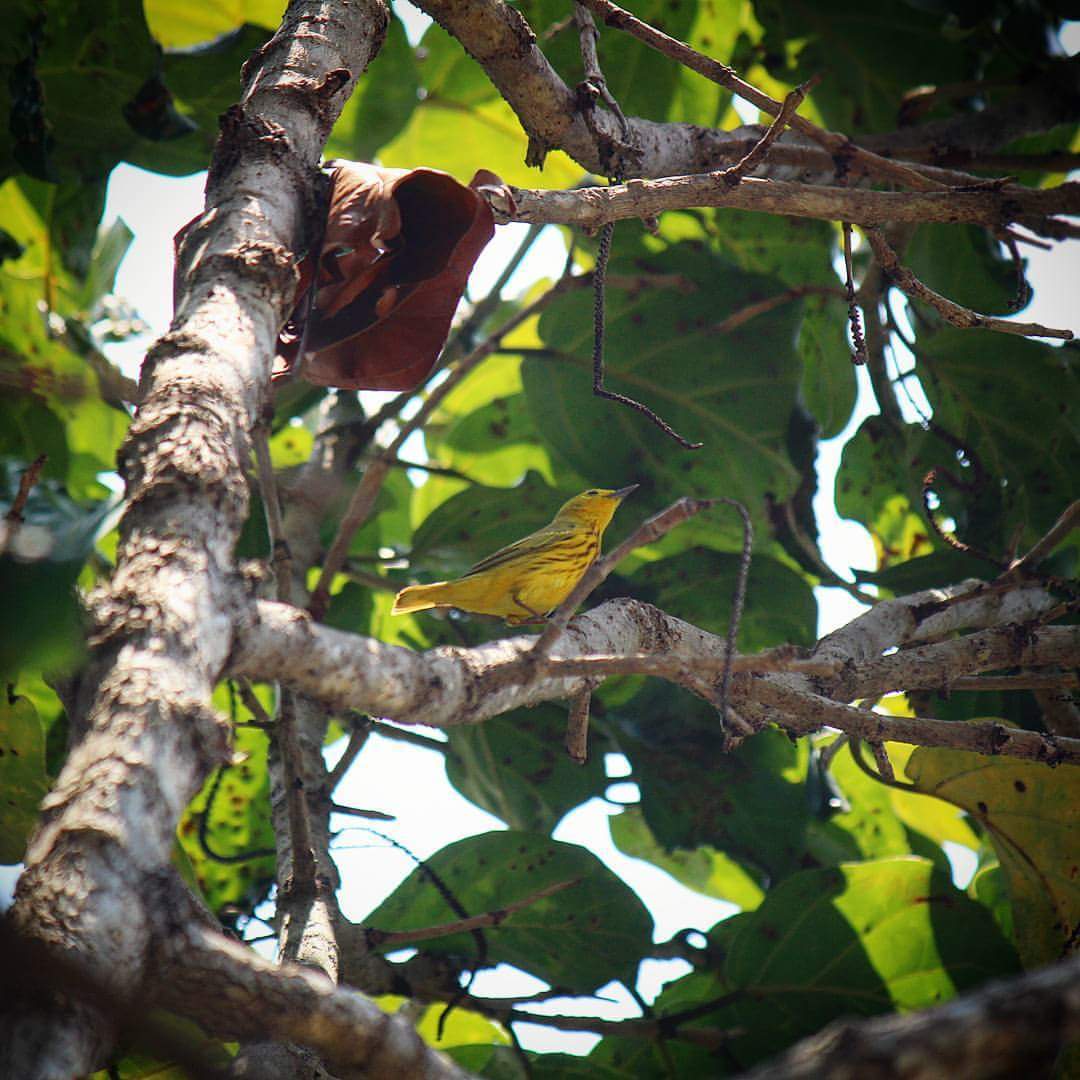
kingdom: Animalia
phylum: Chordata
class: Aves
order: Passeriformes
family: Parulidae
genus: Setophaga
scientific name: Setophaga petechia
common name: Yellow warbler
